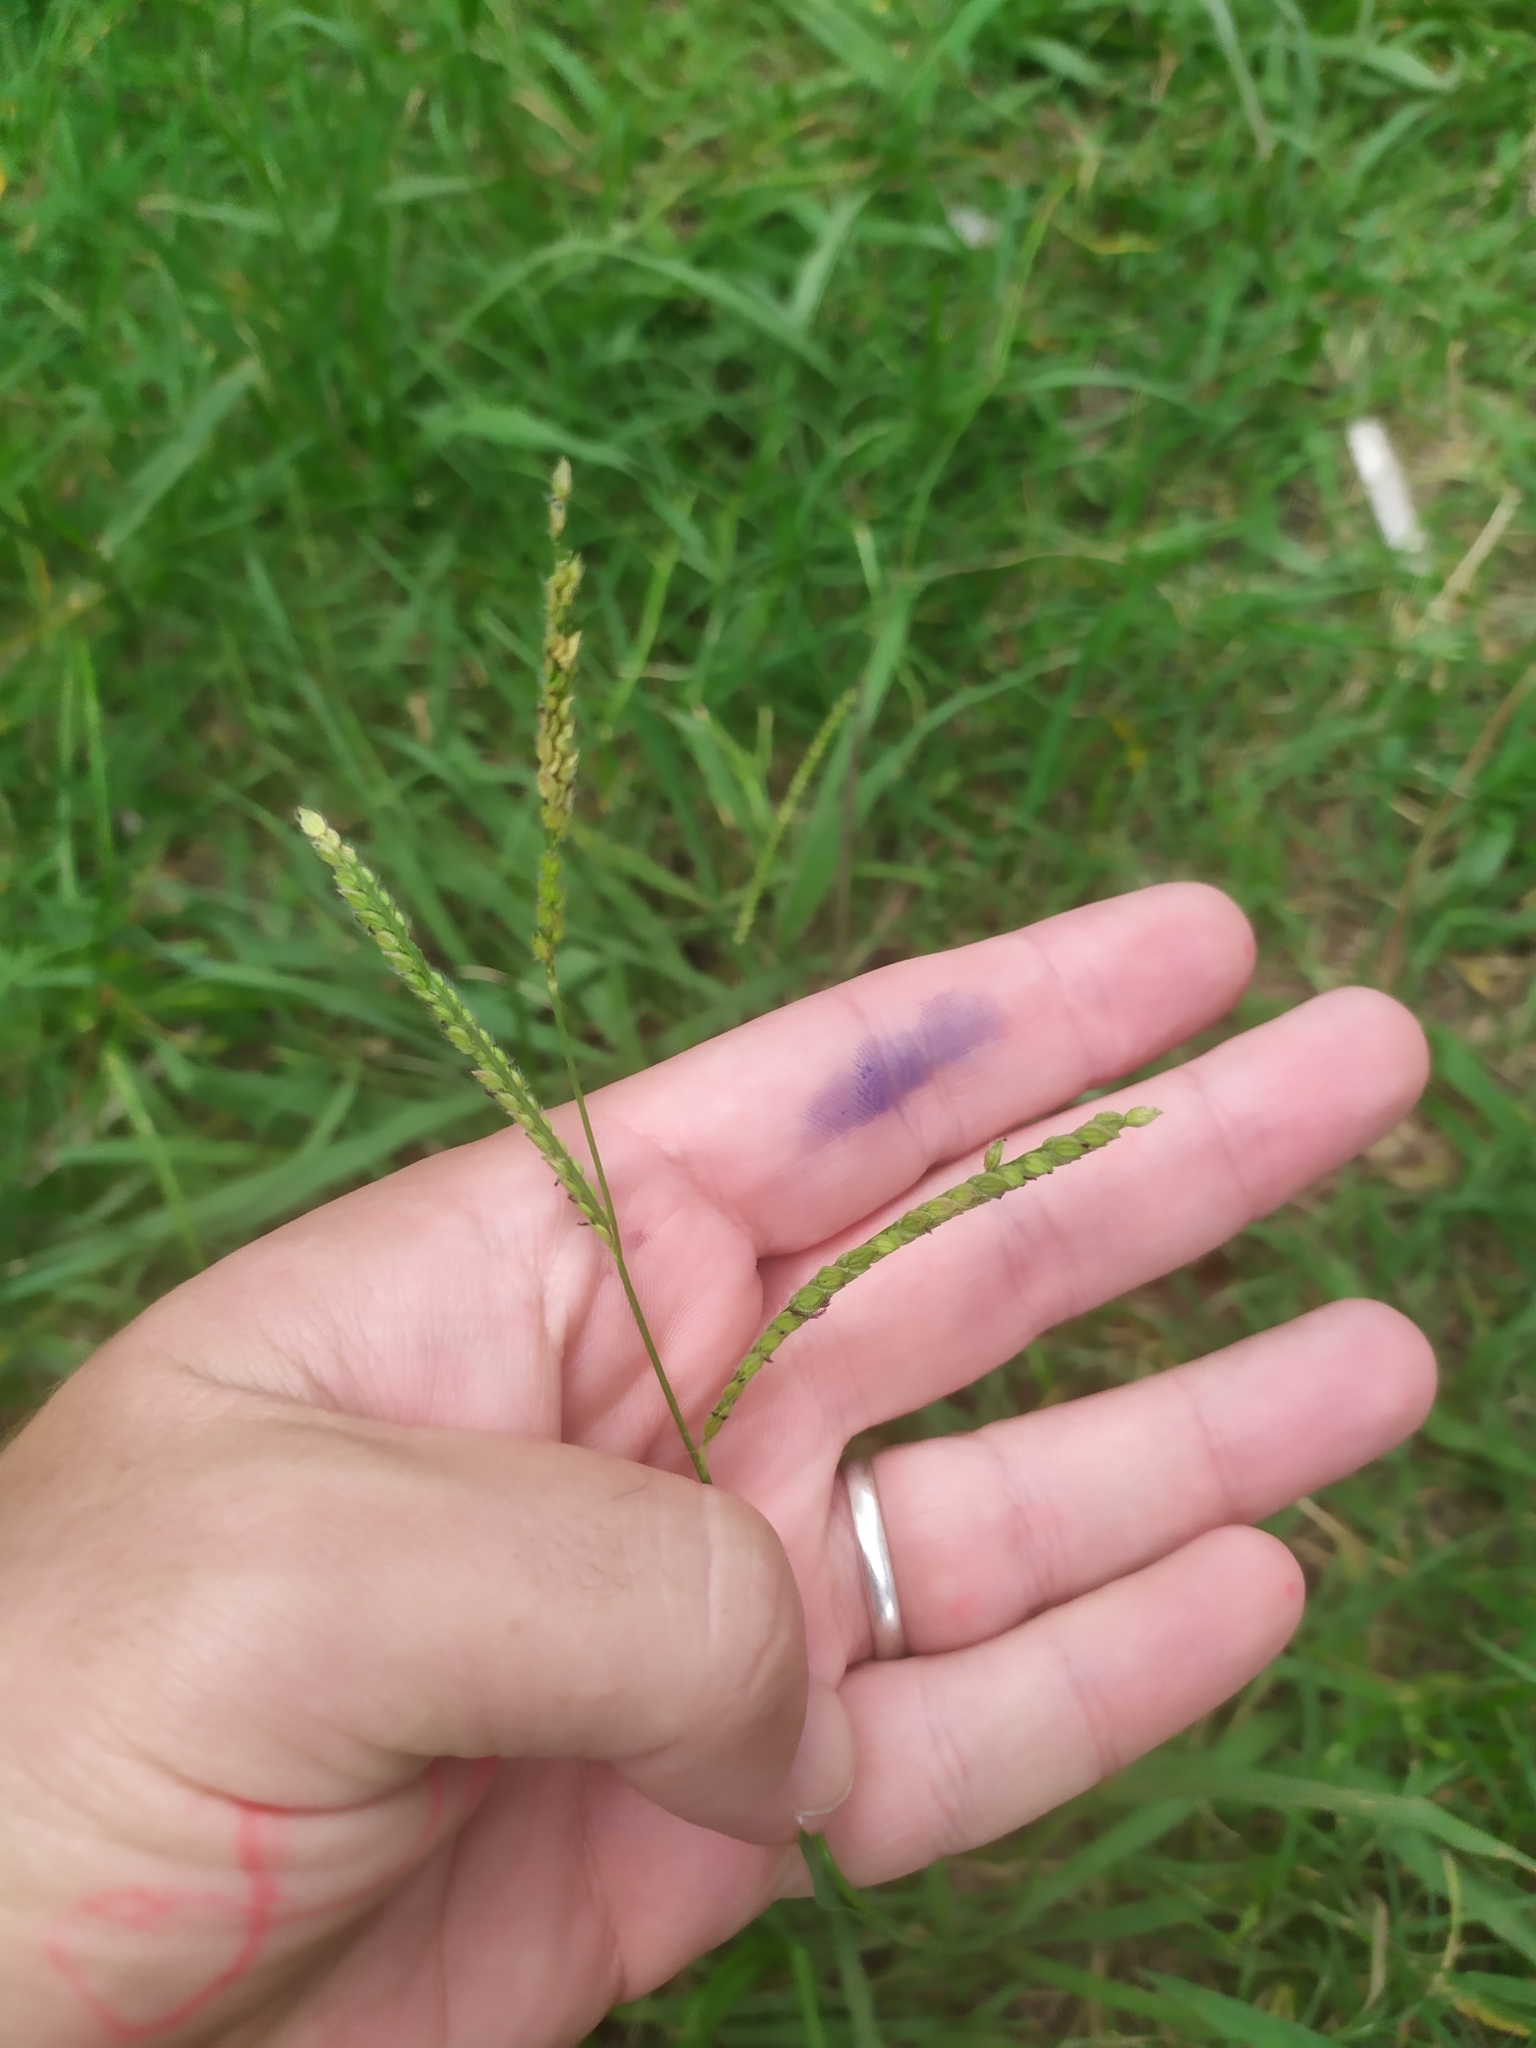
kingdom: Plantae
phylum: Tracheophyta
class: Liliopsida
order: Poales
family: Poaceae
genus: Paspalum
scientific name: Paspalum dilatatum
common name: Dallisgrass
